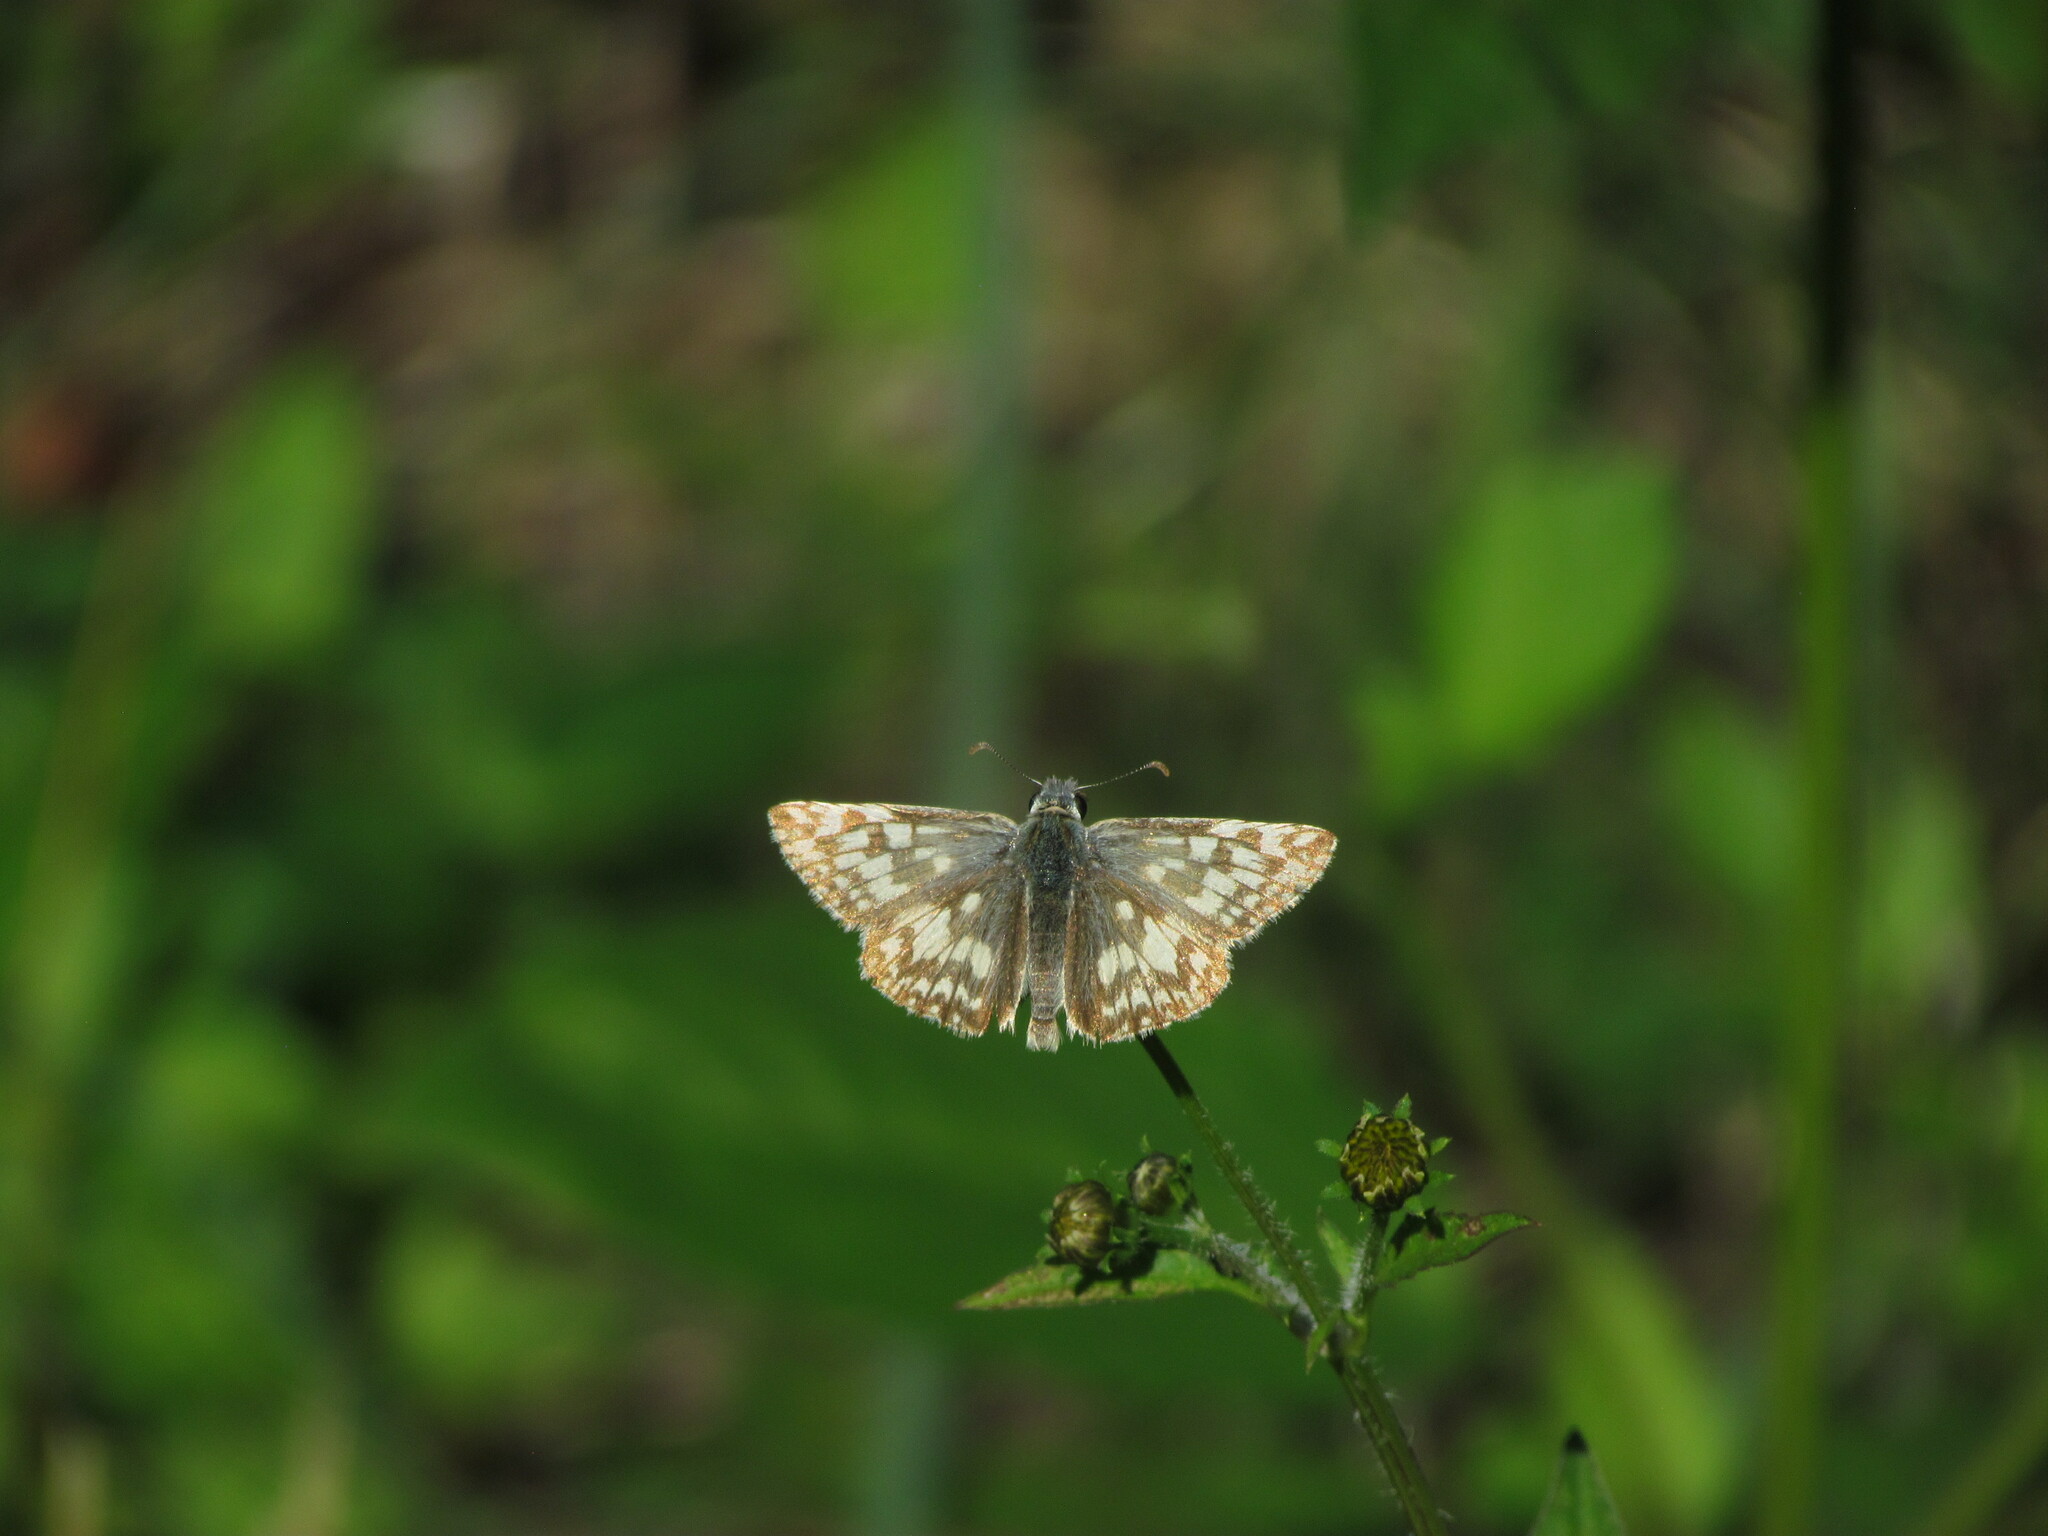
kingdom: Animalia
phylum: Arthropoda
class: Insecta
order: Lepidoptera
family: Hesperiidae
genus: Heliopetes
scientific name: Heliopetes americanus
